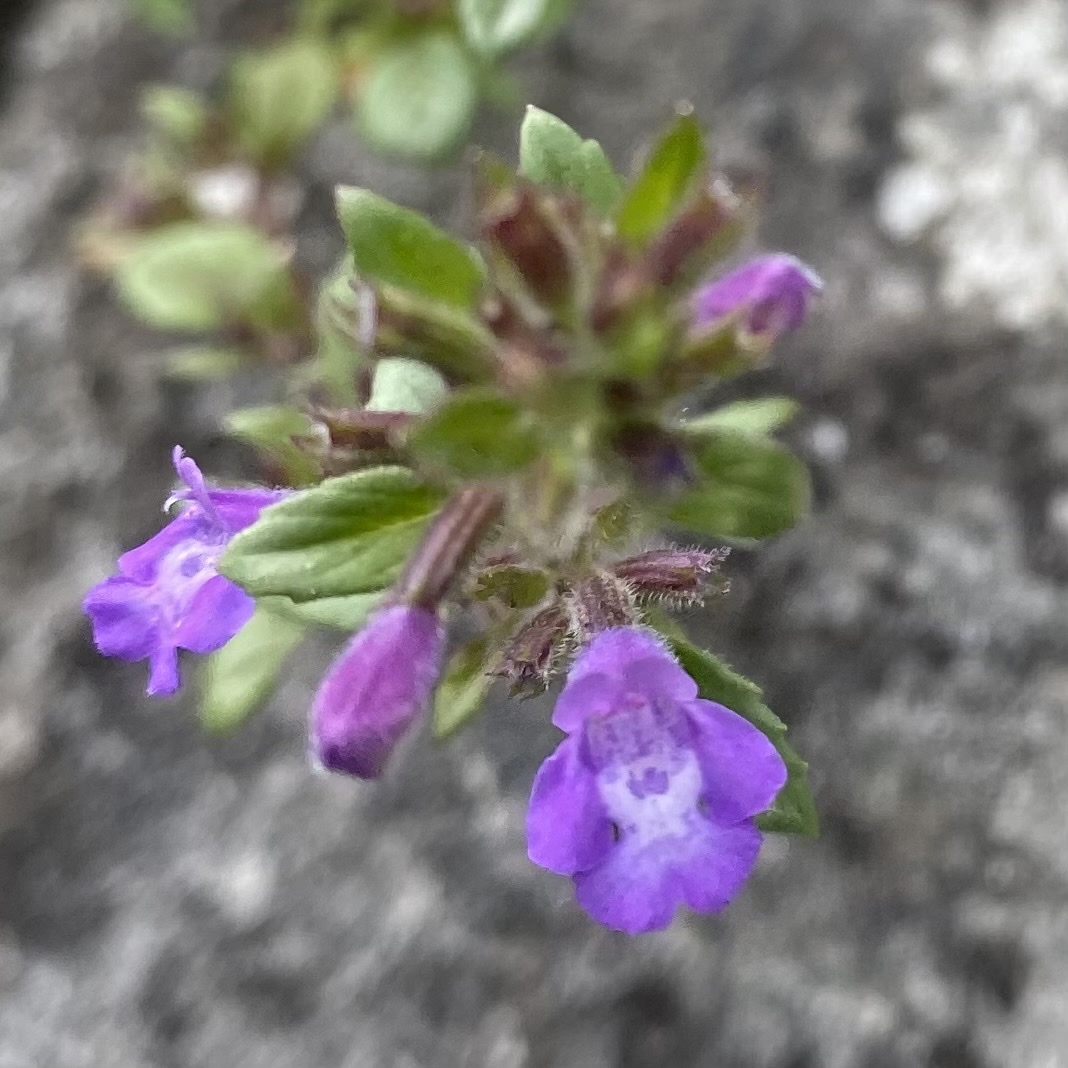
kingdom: Plantae
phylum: Tracheophyta
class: Magnoliopsida
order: Lamiales
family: Lamiaceae
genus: Clinopodium
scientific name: Clinopodium alpinum
